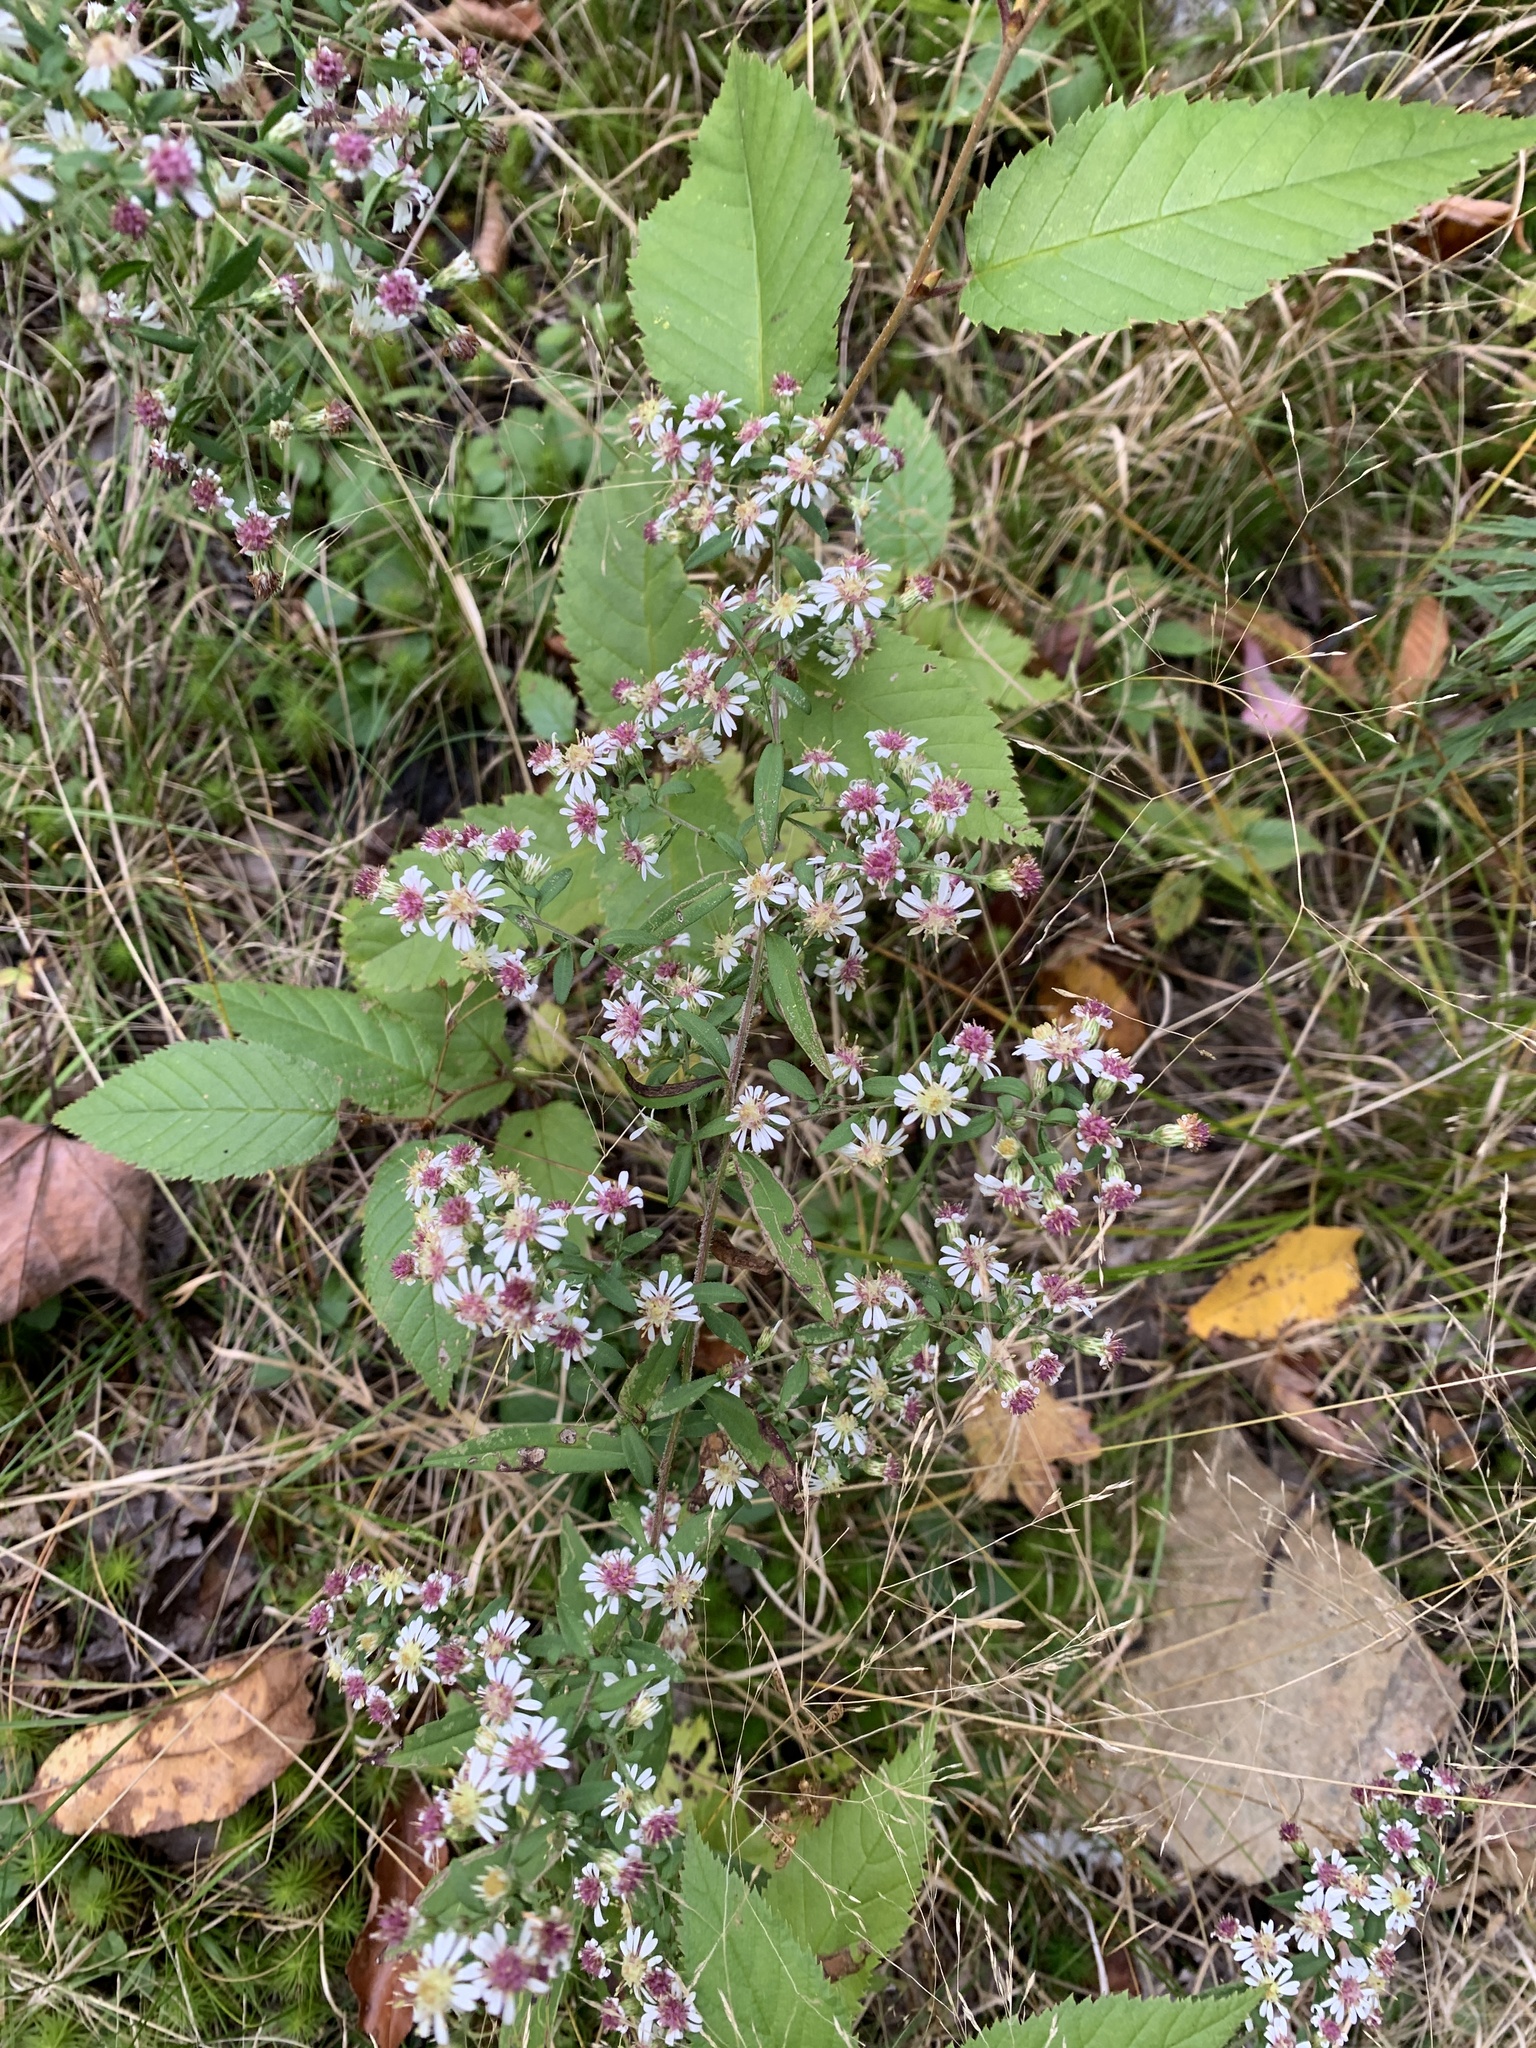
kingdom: Plantae
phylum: Tracheophyta
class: Magnoliopsida
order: Asterales
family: Asteraceae
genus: Symphyotrichum
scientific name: Symphyotrichum lateriflorum
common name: Calico aster
